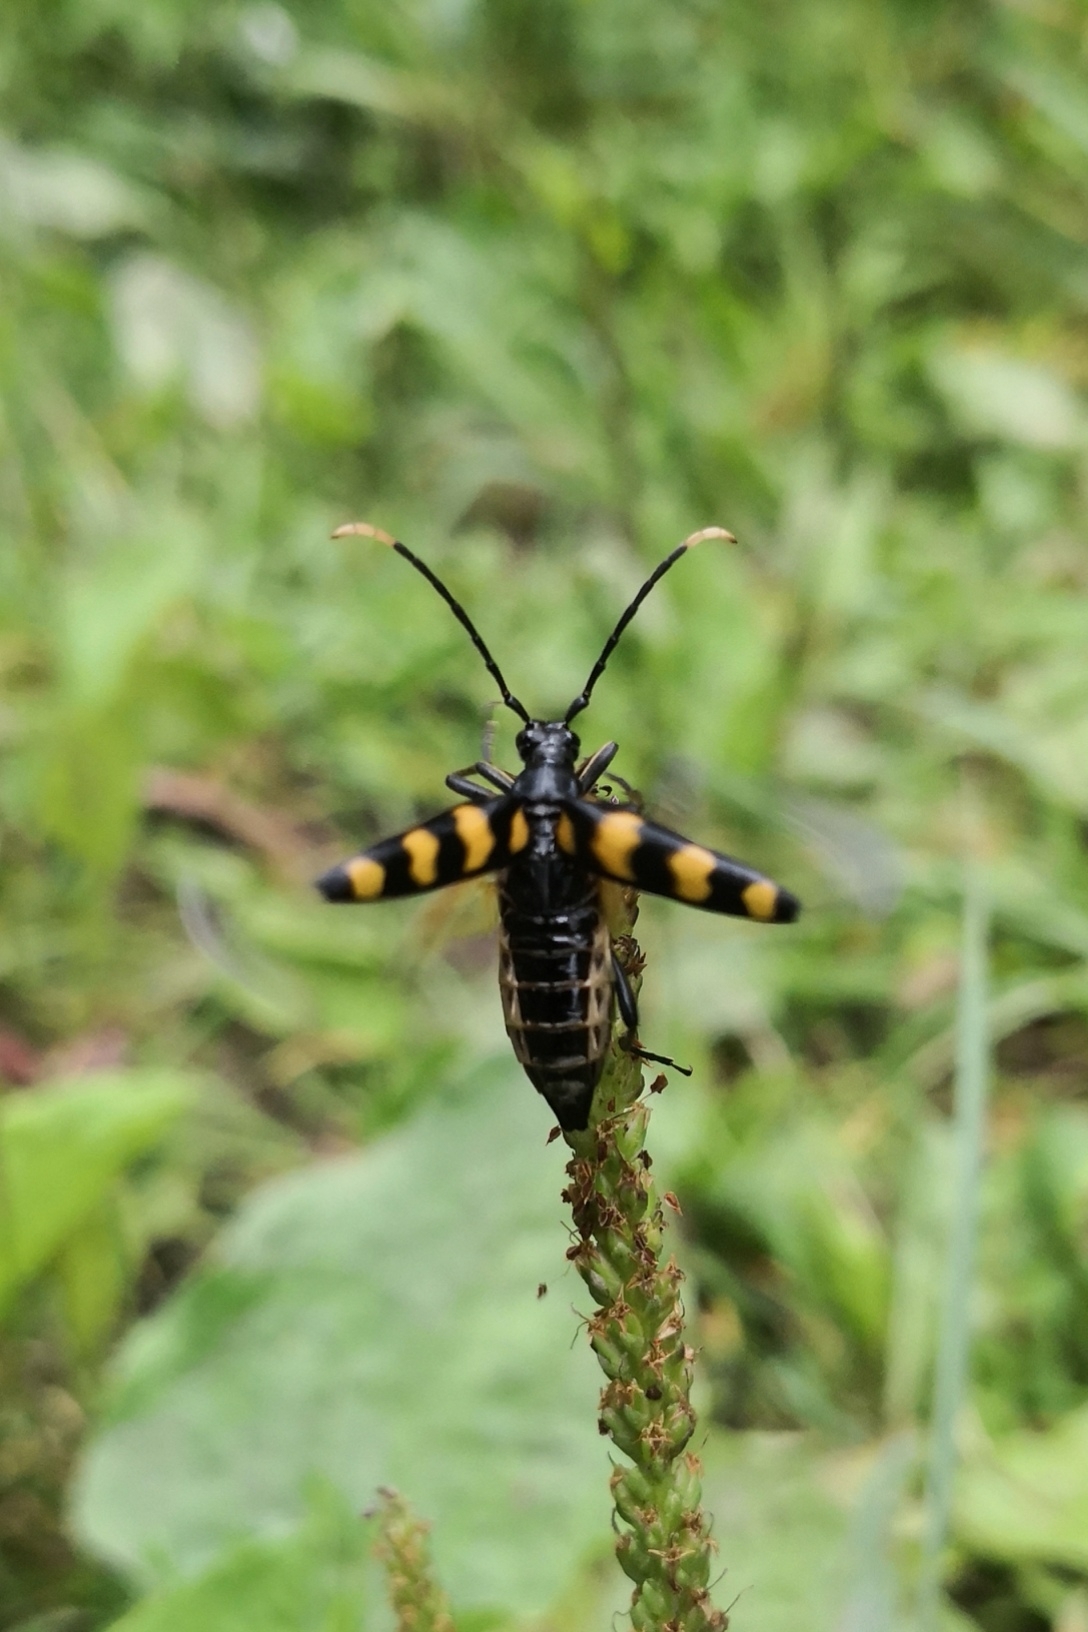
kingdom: Animalia
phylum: Arthropoda
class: Insecta
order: Coleoptera
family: Cerambycidae
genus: Leptura
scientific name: Leptura quadrifasciata
